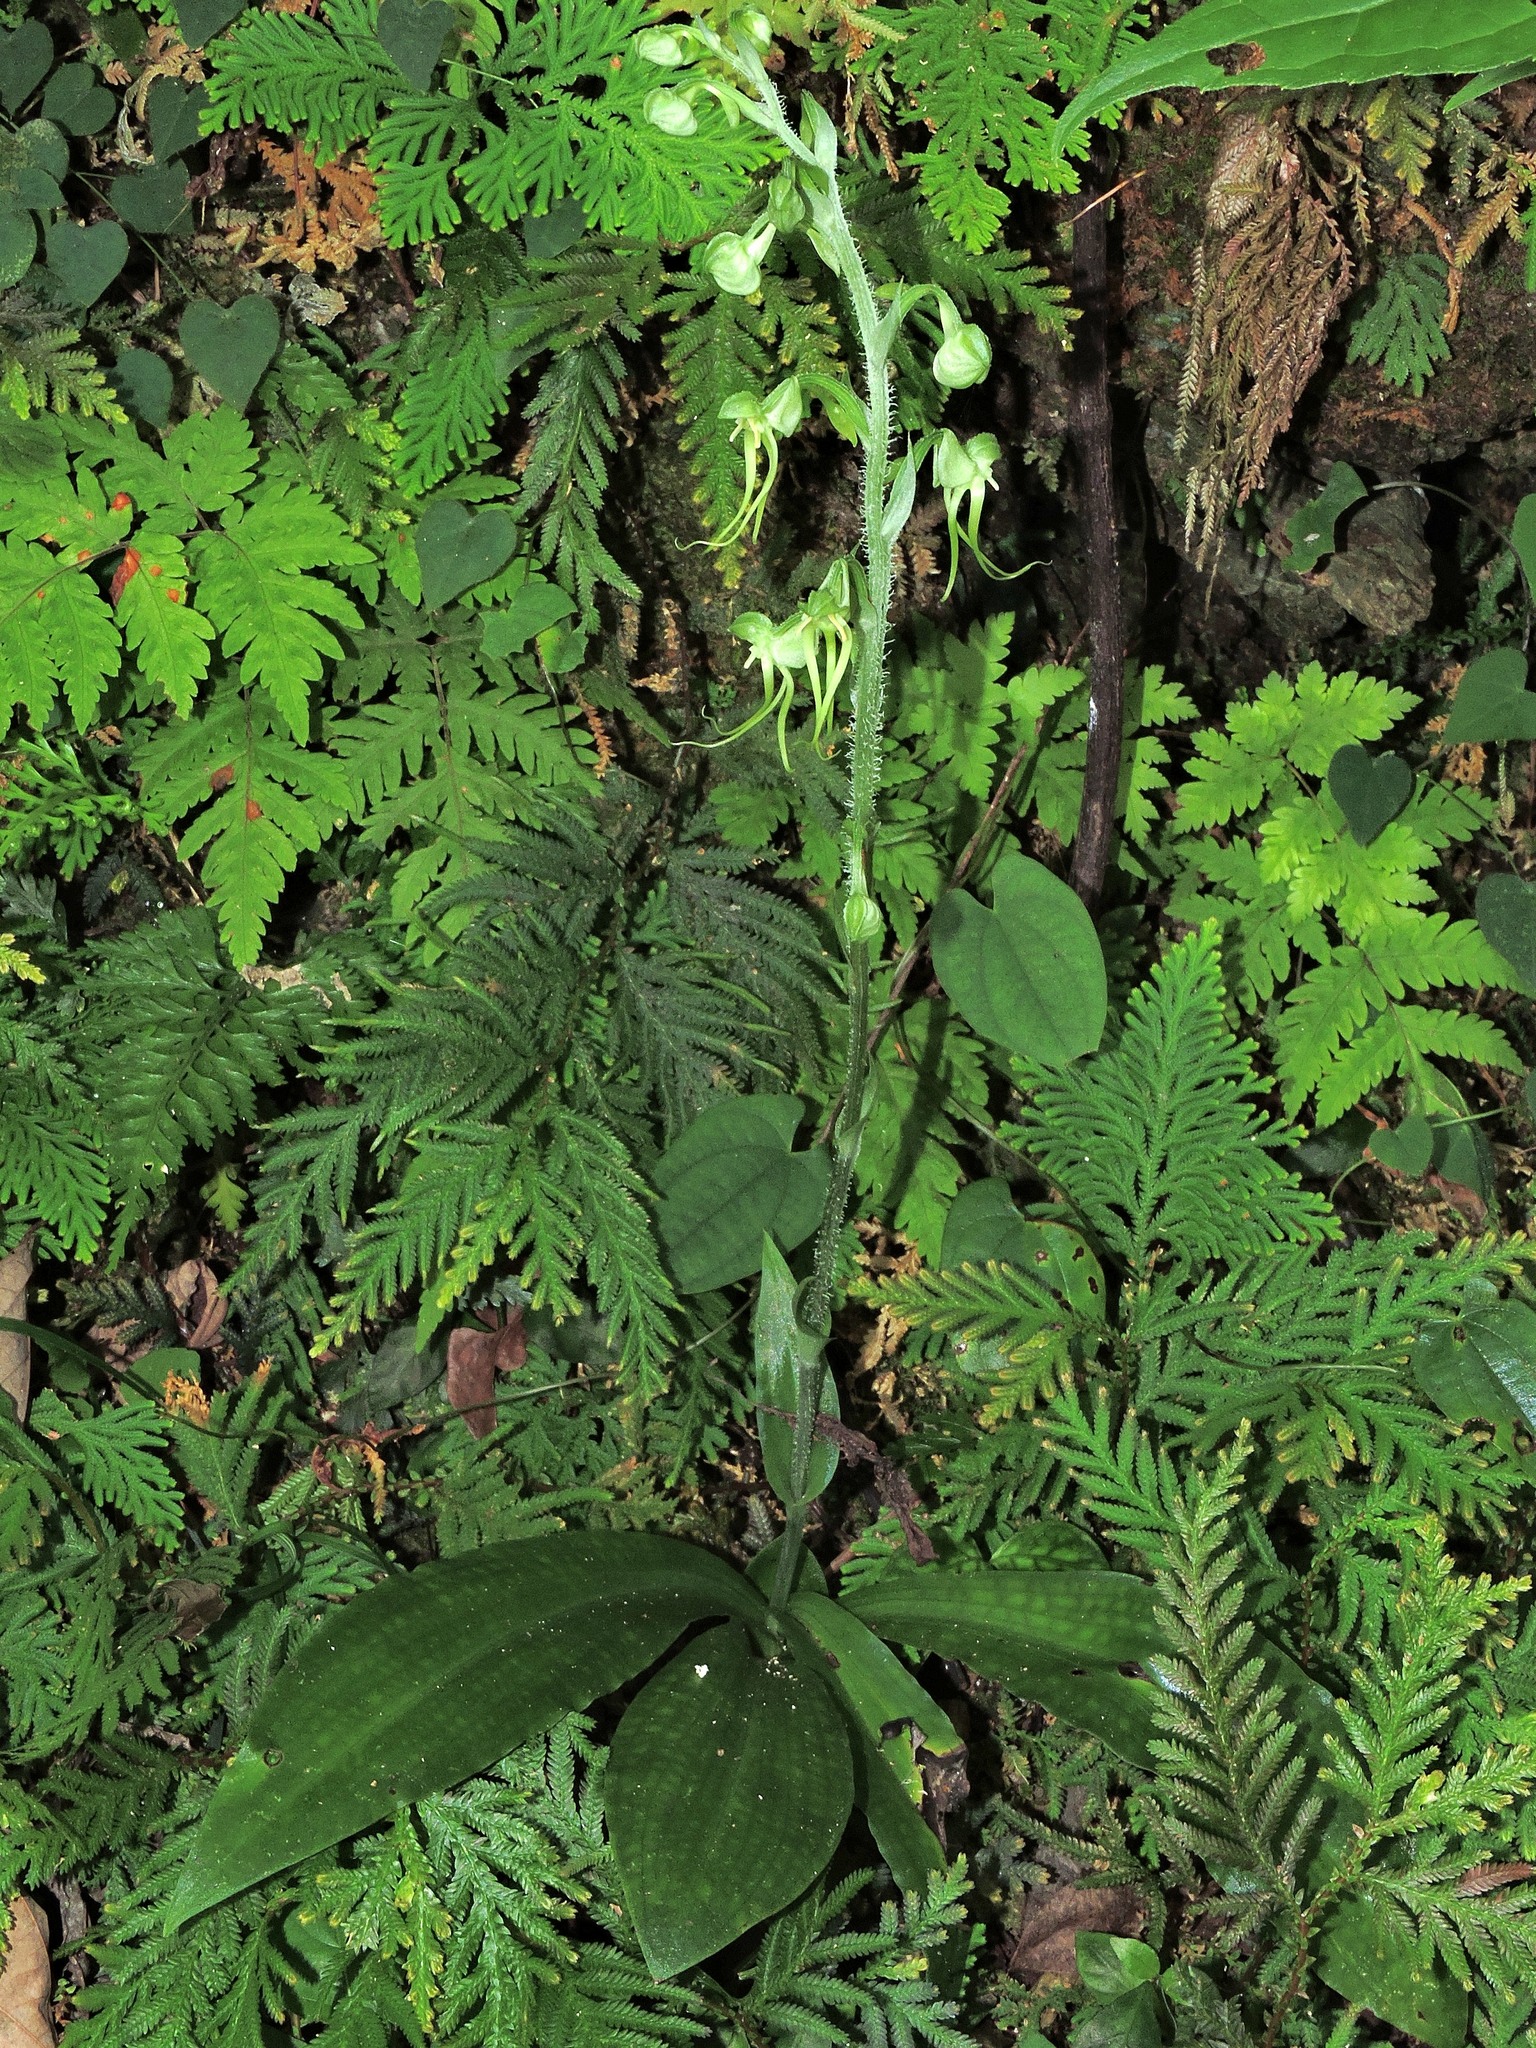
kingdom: Plantae
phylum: Tracheophyta
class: Liliopsida
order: Asparagales
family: Orchidaceae
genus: Habenaria
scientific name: Habenaria ciliolaris
